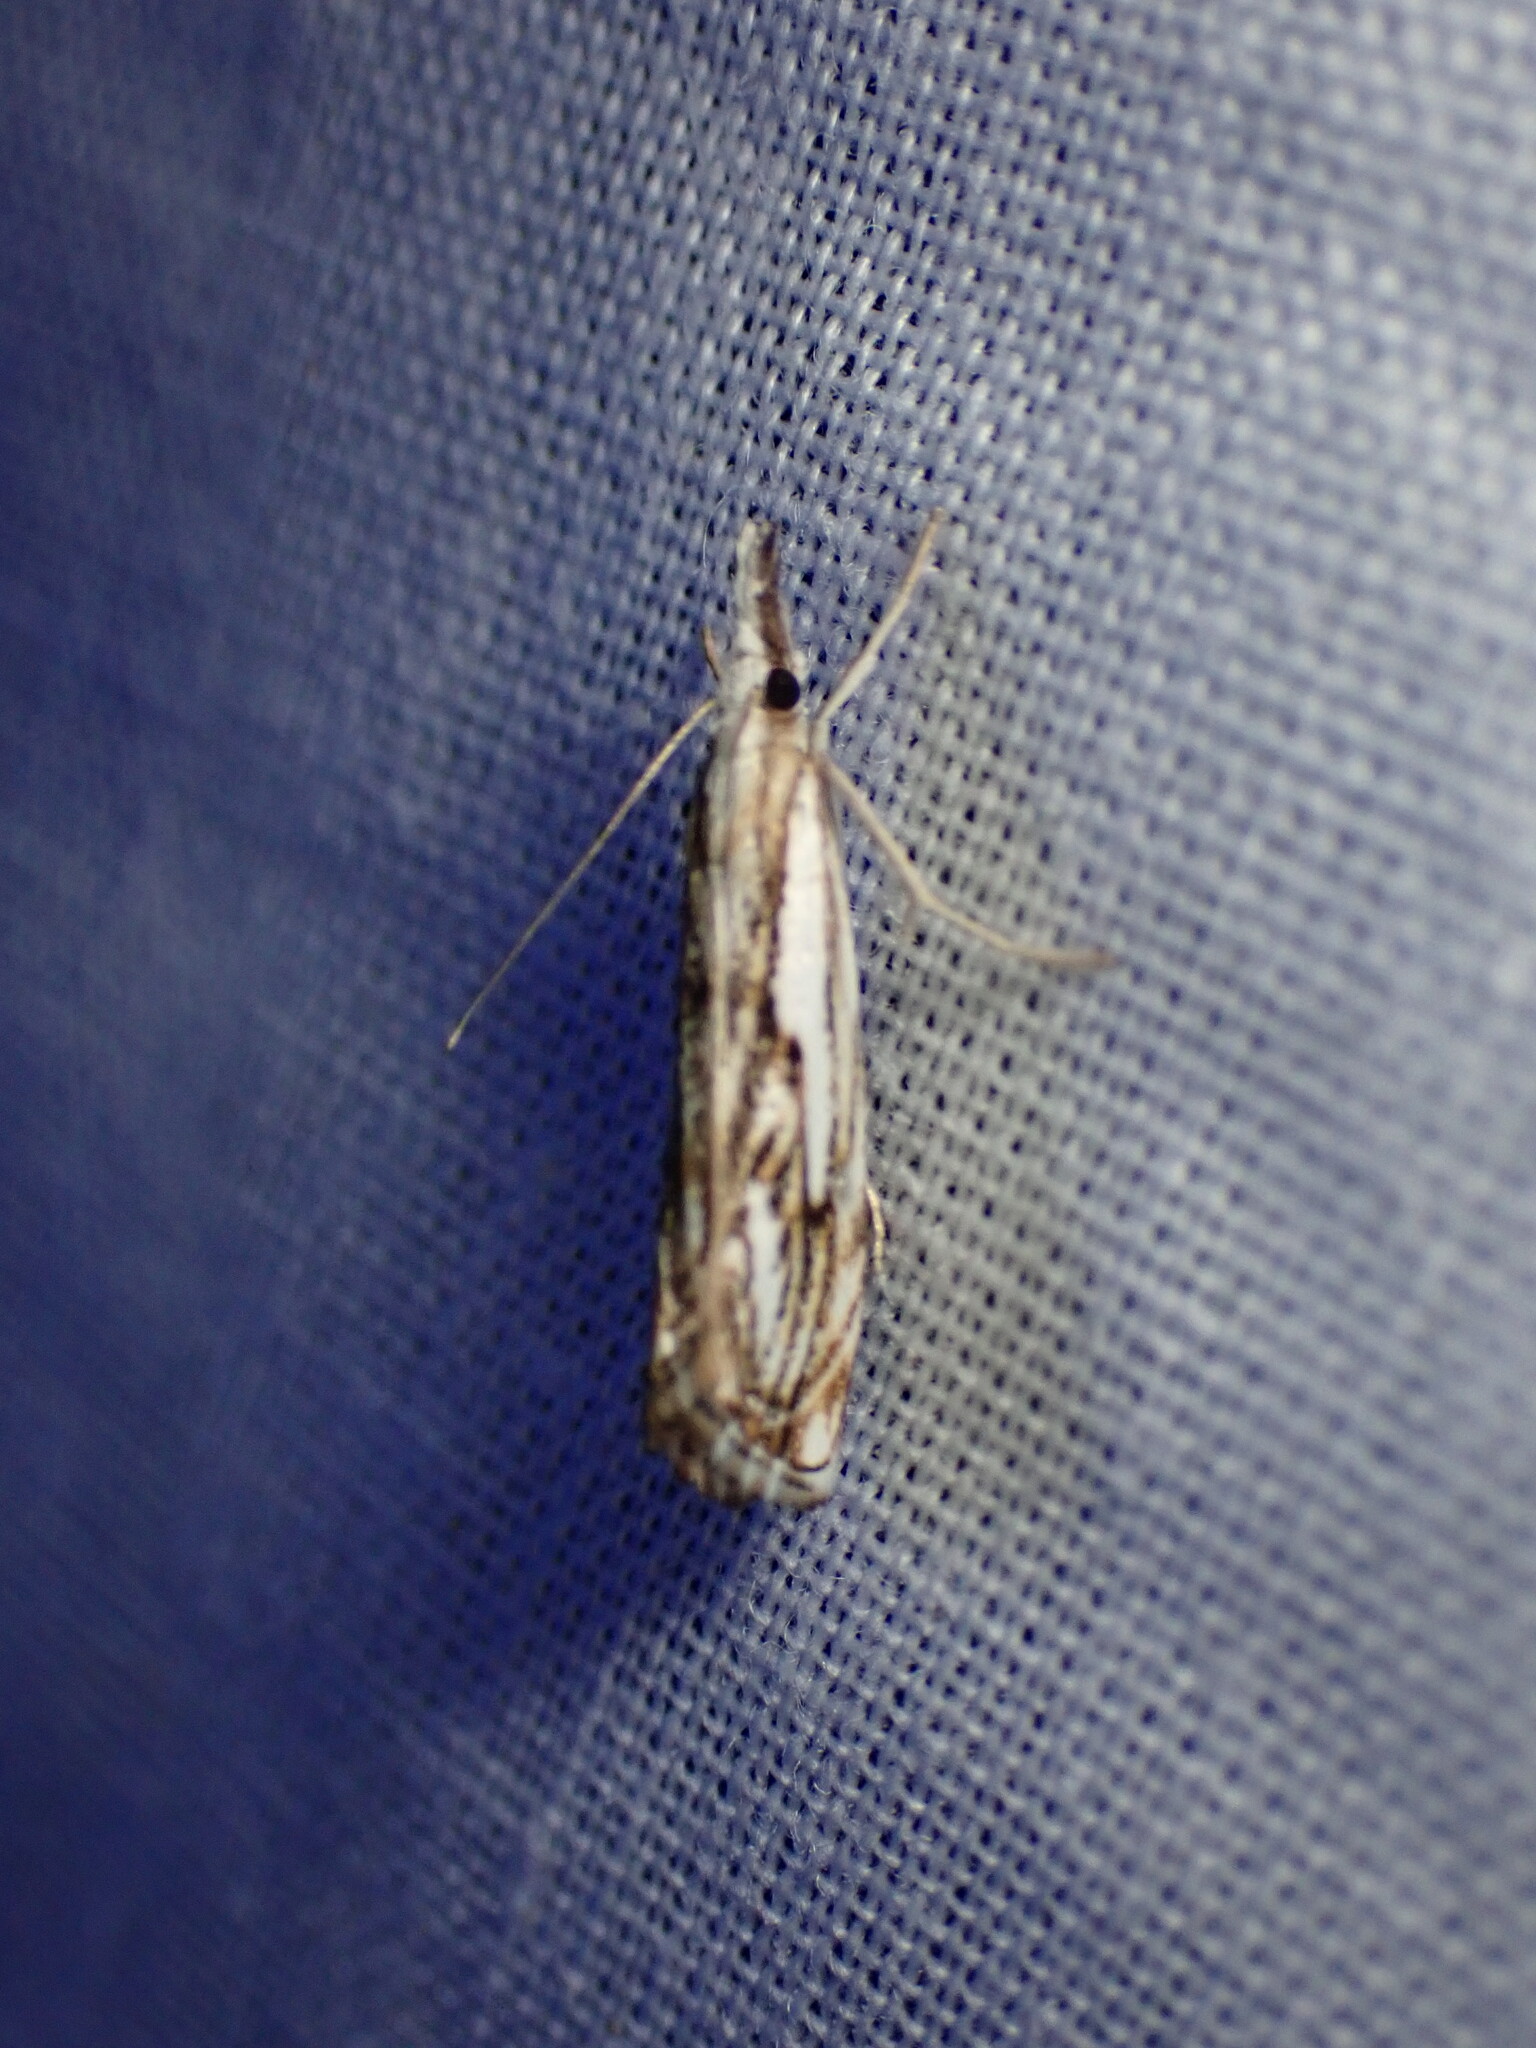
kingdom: Animalia
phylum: Arthropoda
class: Insecta
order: Lepidoptera
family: Crambidae
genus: Catoptria
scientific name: Catoptria falsella
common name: Chequered grass-veneer
